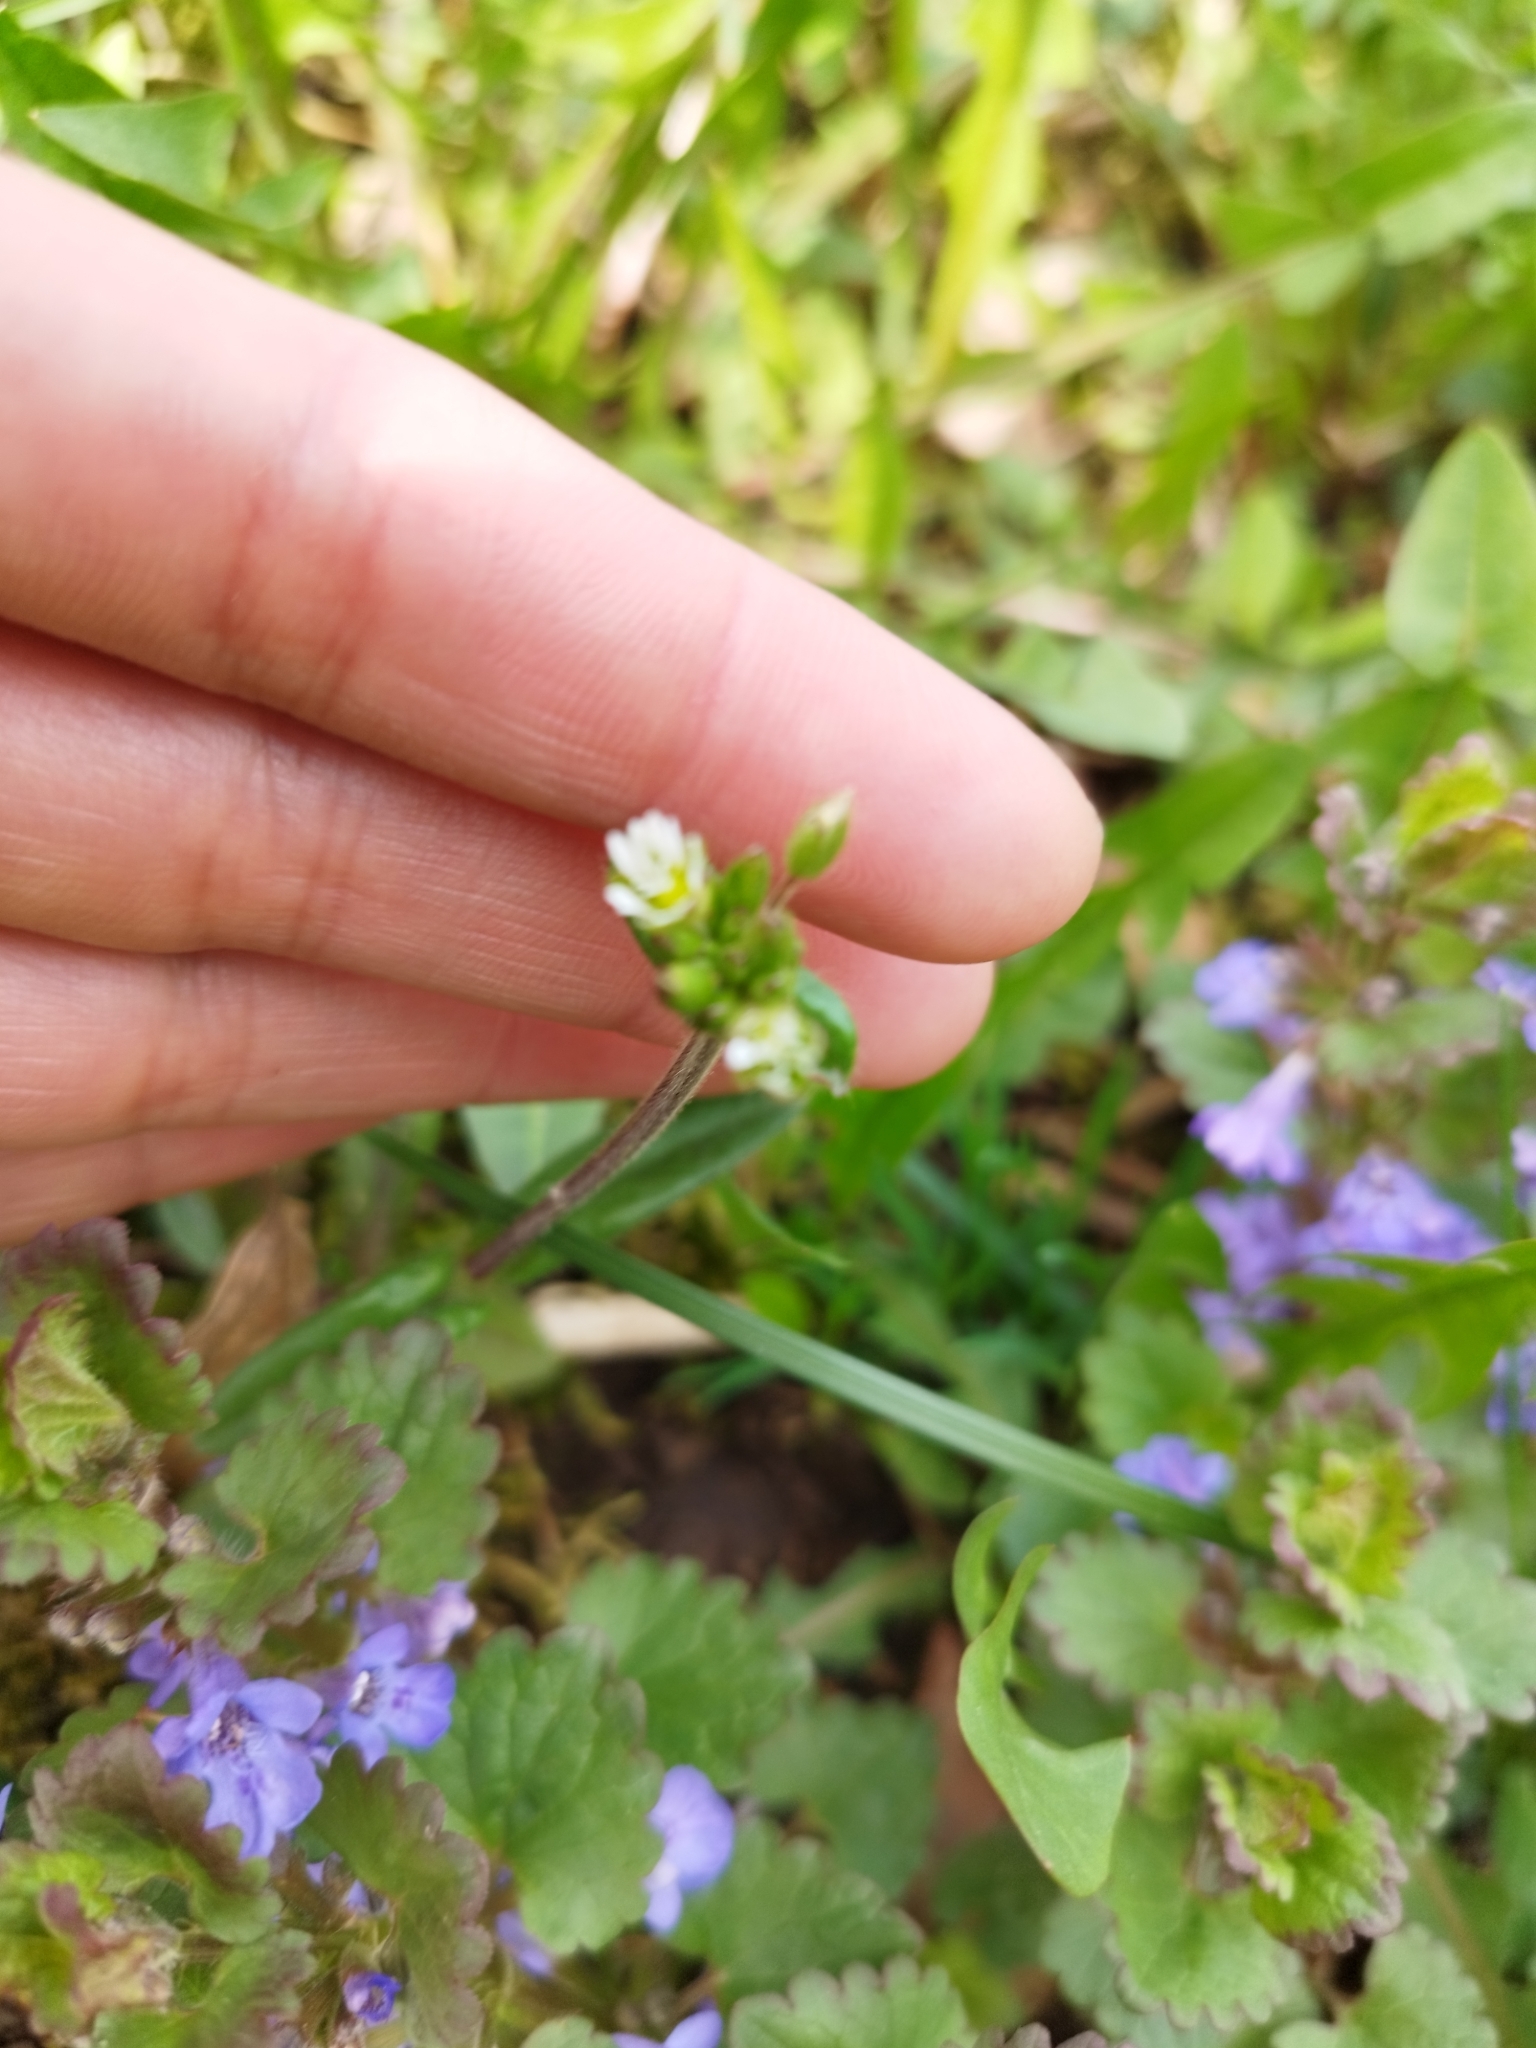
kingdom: Plantae
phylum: Tracheophyta
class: Magnoliopsida
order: Caryophyllales
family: Caryophyllaceae
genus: Cerastium
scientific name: Cerastium holosteoides
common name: Big chickweed
